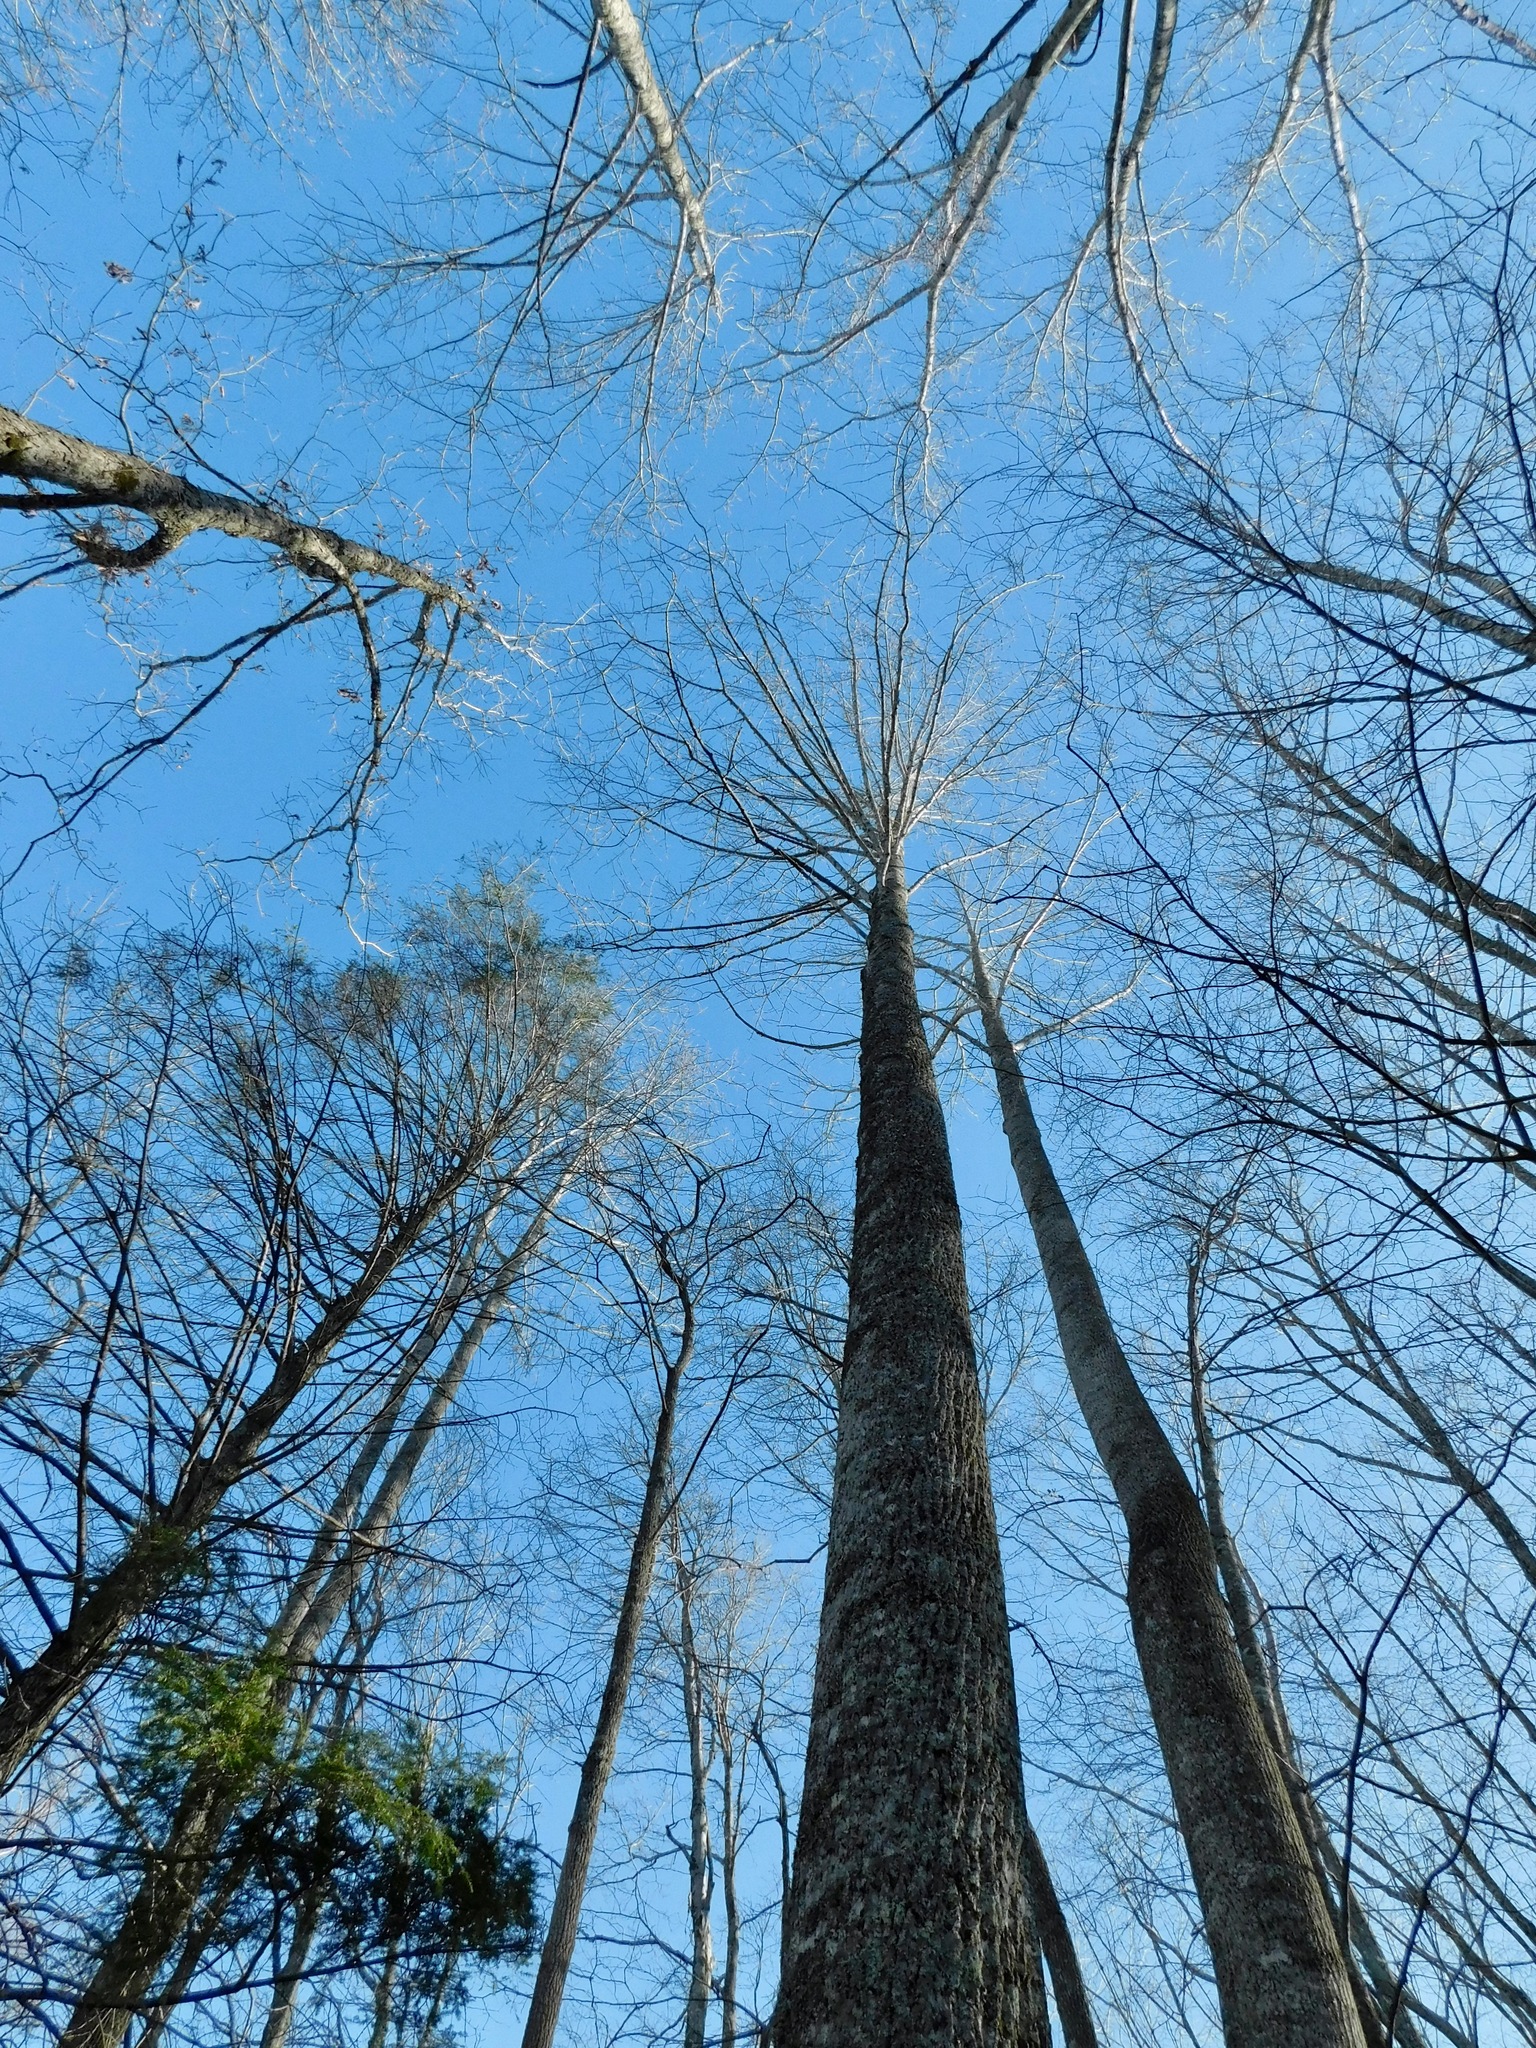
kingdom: Plantae
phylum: Tracheophyta
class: Magnoliopsida
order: Magnoliales
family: Magnoliaceae
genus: Liriodendron
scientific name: Liriodendron tulipifera
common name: Tulip tree
